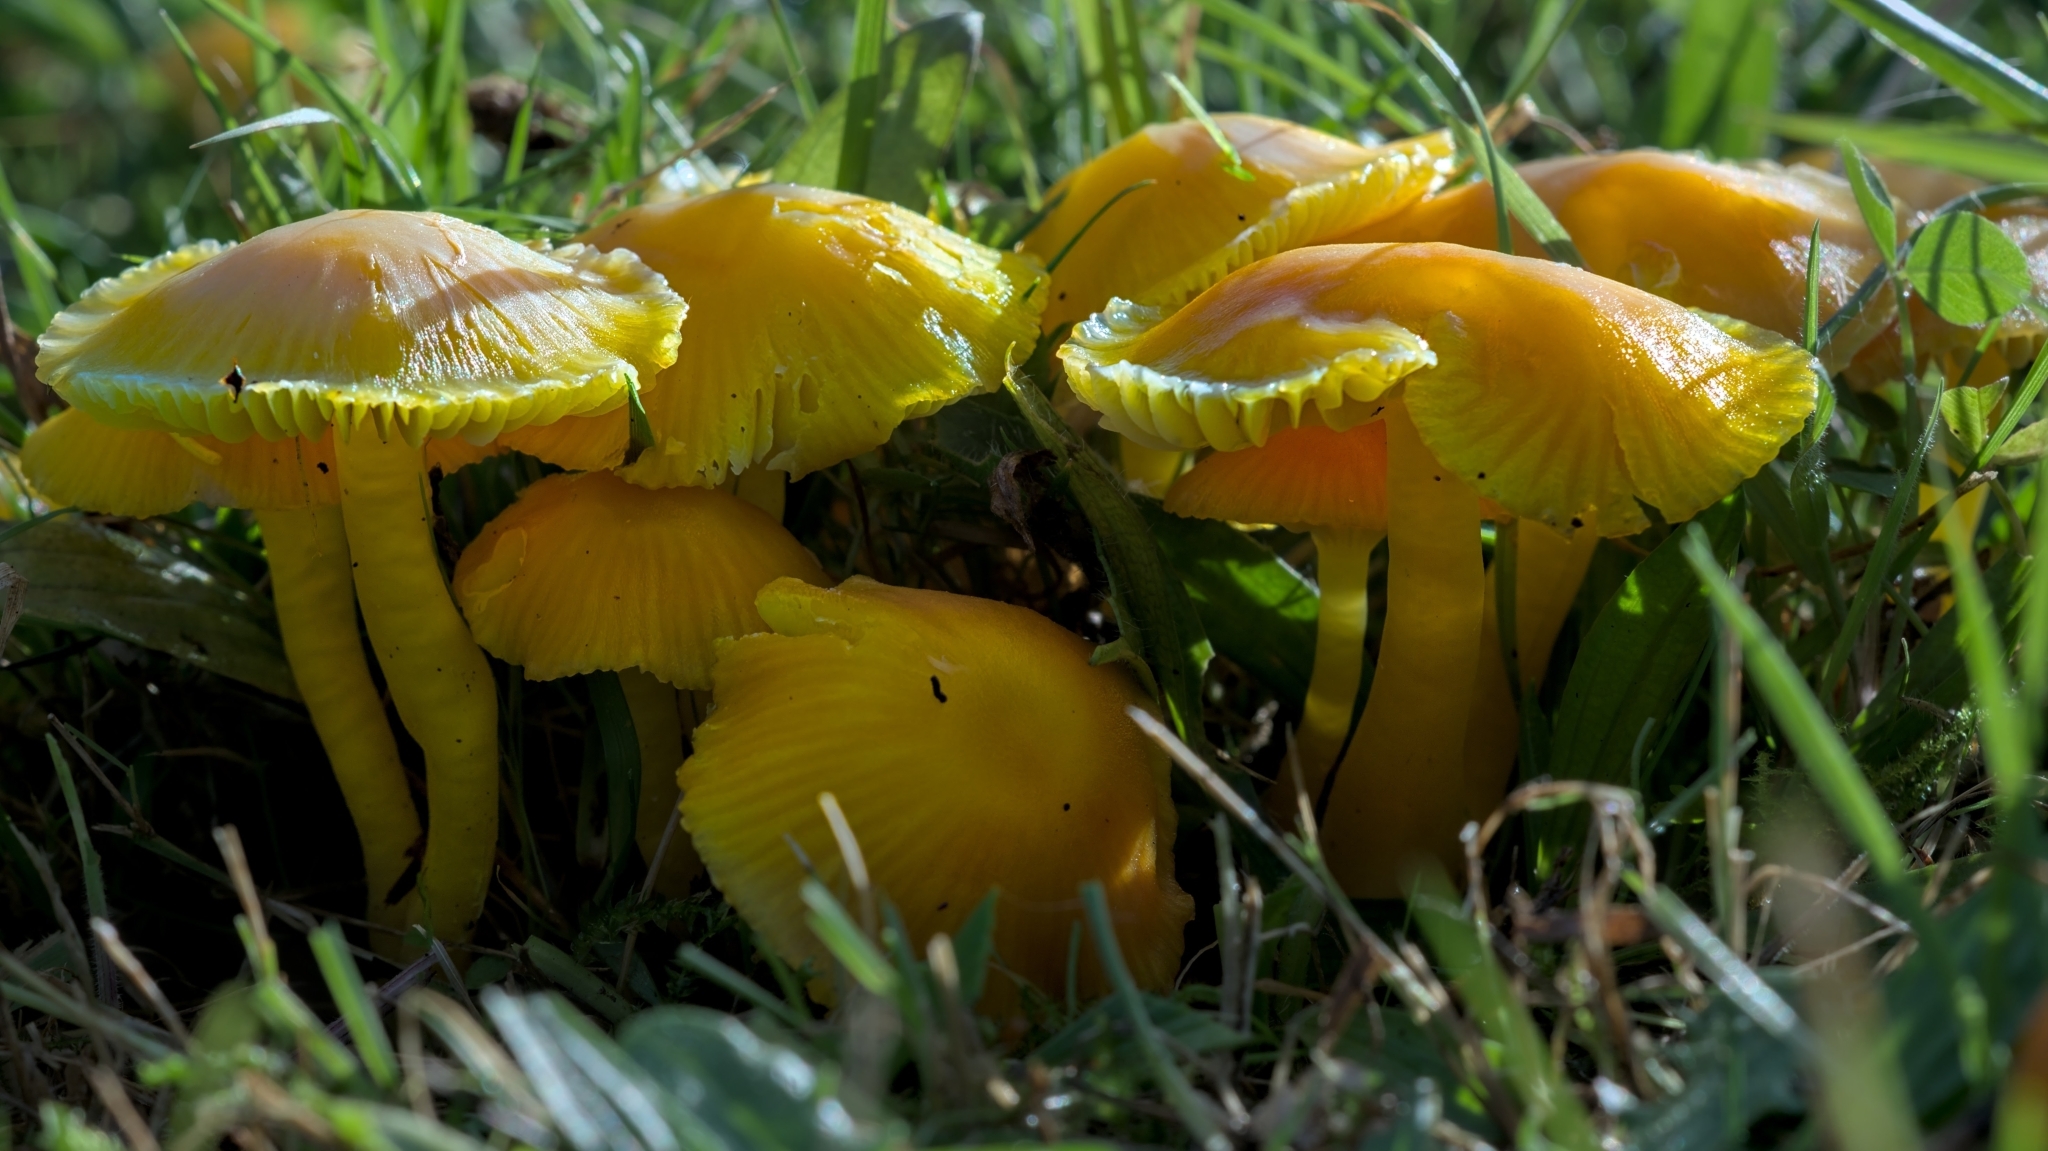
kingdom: Fungi
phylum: Basidiomycota
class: Agaricomycetes
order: Agaricales
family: Hygrophoraceae
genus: Hygrocybe
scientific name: Hygrocybe ceracea
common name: Butter waxcap
